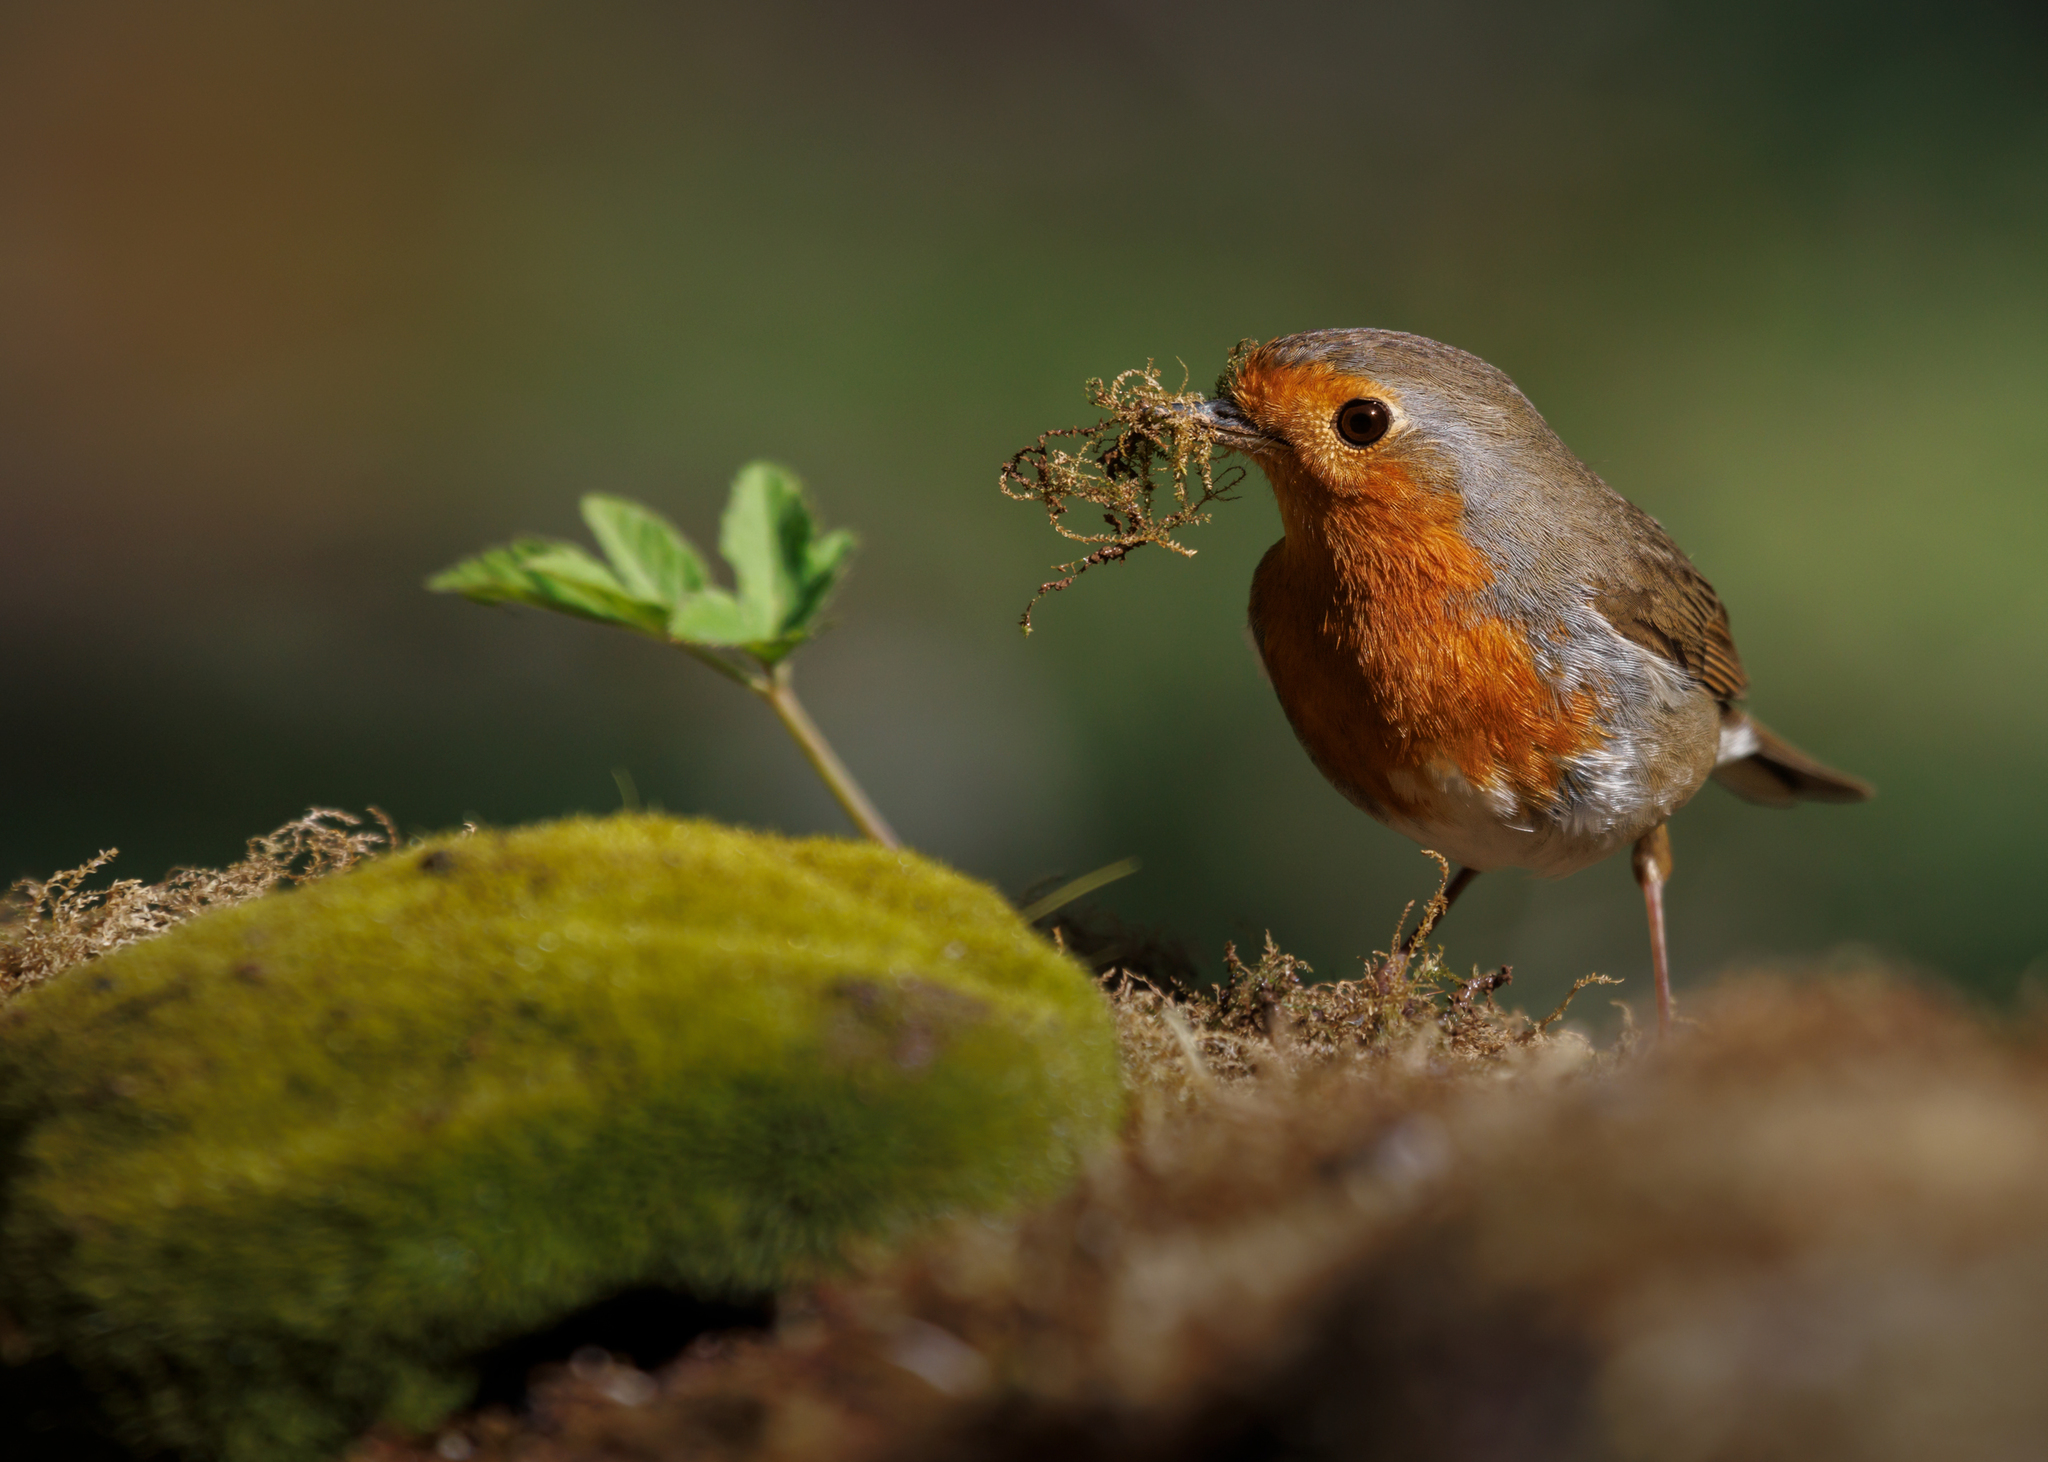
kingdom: Animalia
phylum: Chordata
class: Aves
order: Passeriformes
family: Muscicapidae
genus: Erithacus
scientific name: Erithacus rubecula
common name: European robin
